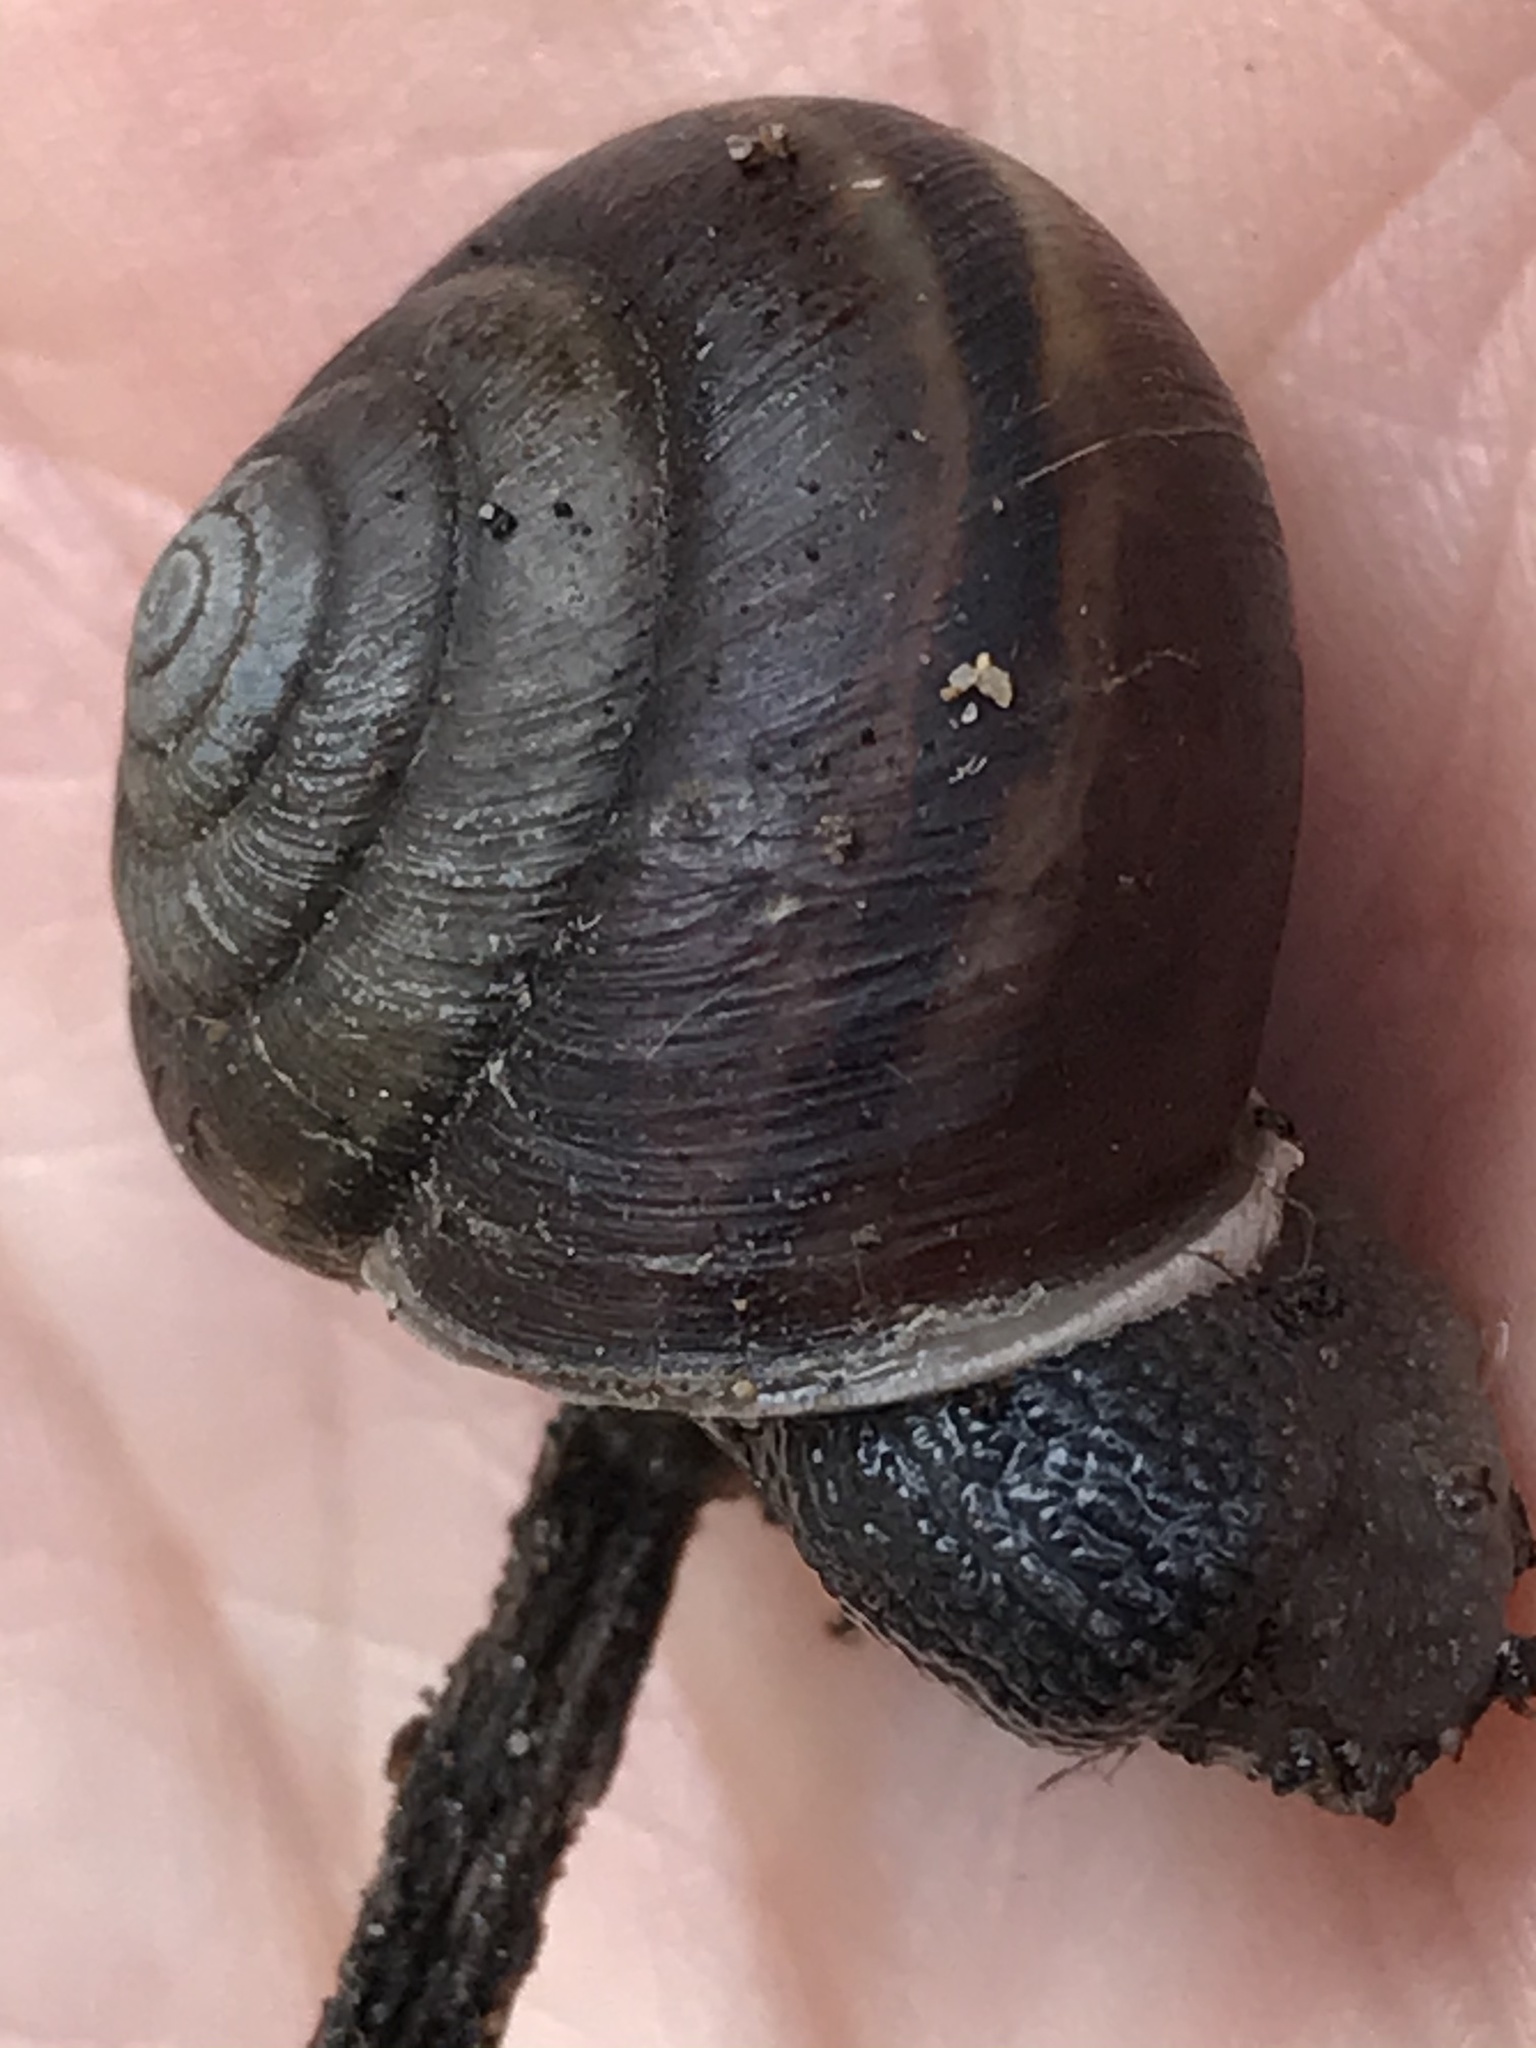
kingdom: Animalia
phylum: Mollusca
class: Gastropoda
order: Stylommatophora
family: Xanthonychidae
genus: Helminthoglypta
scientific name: Helminthoglypta umbilicata
